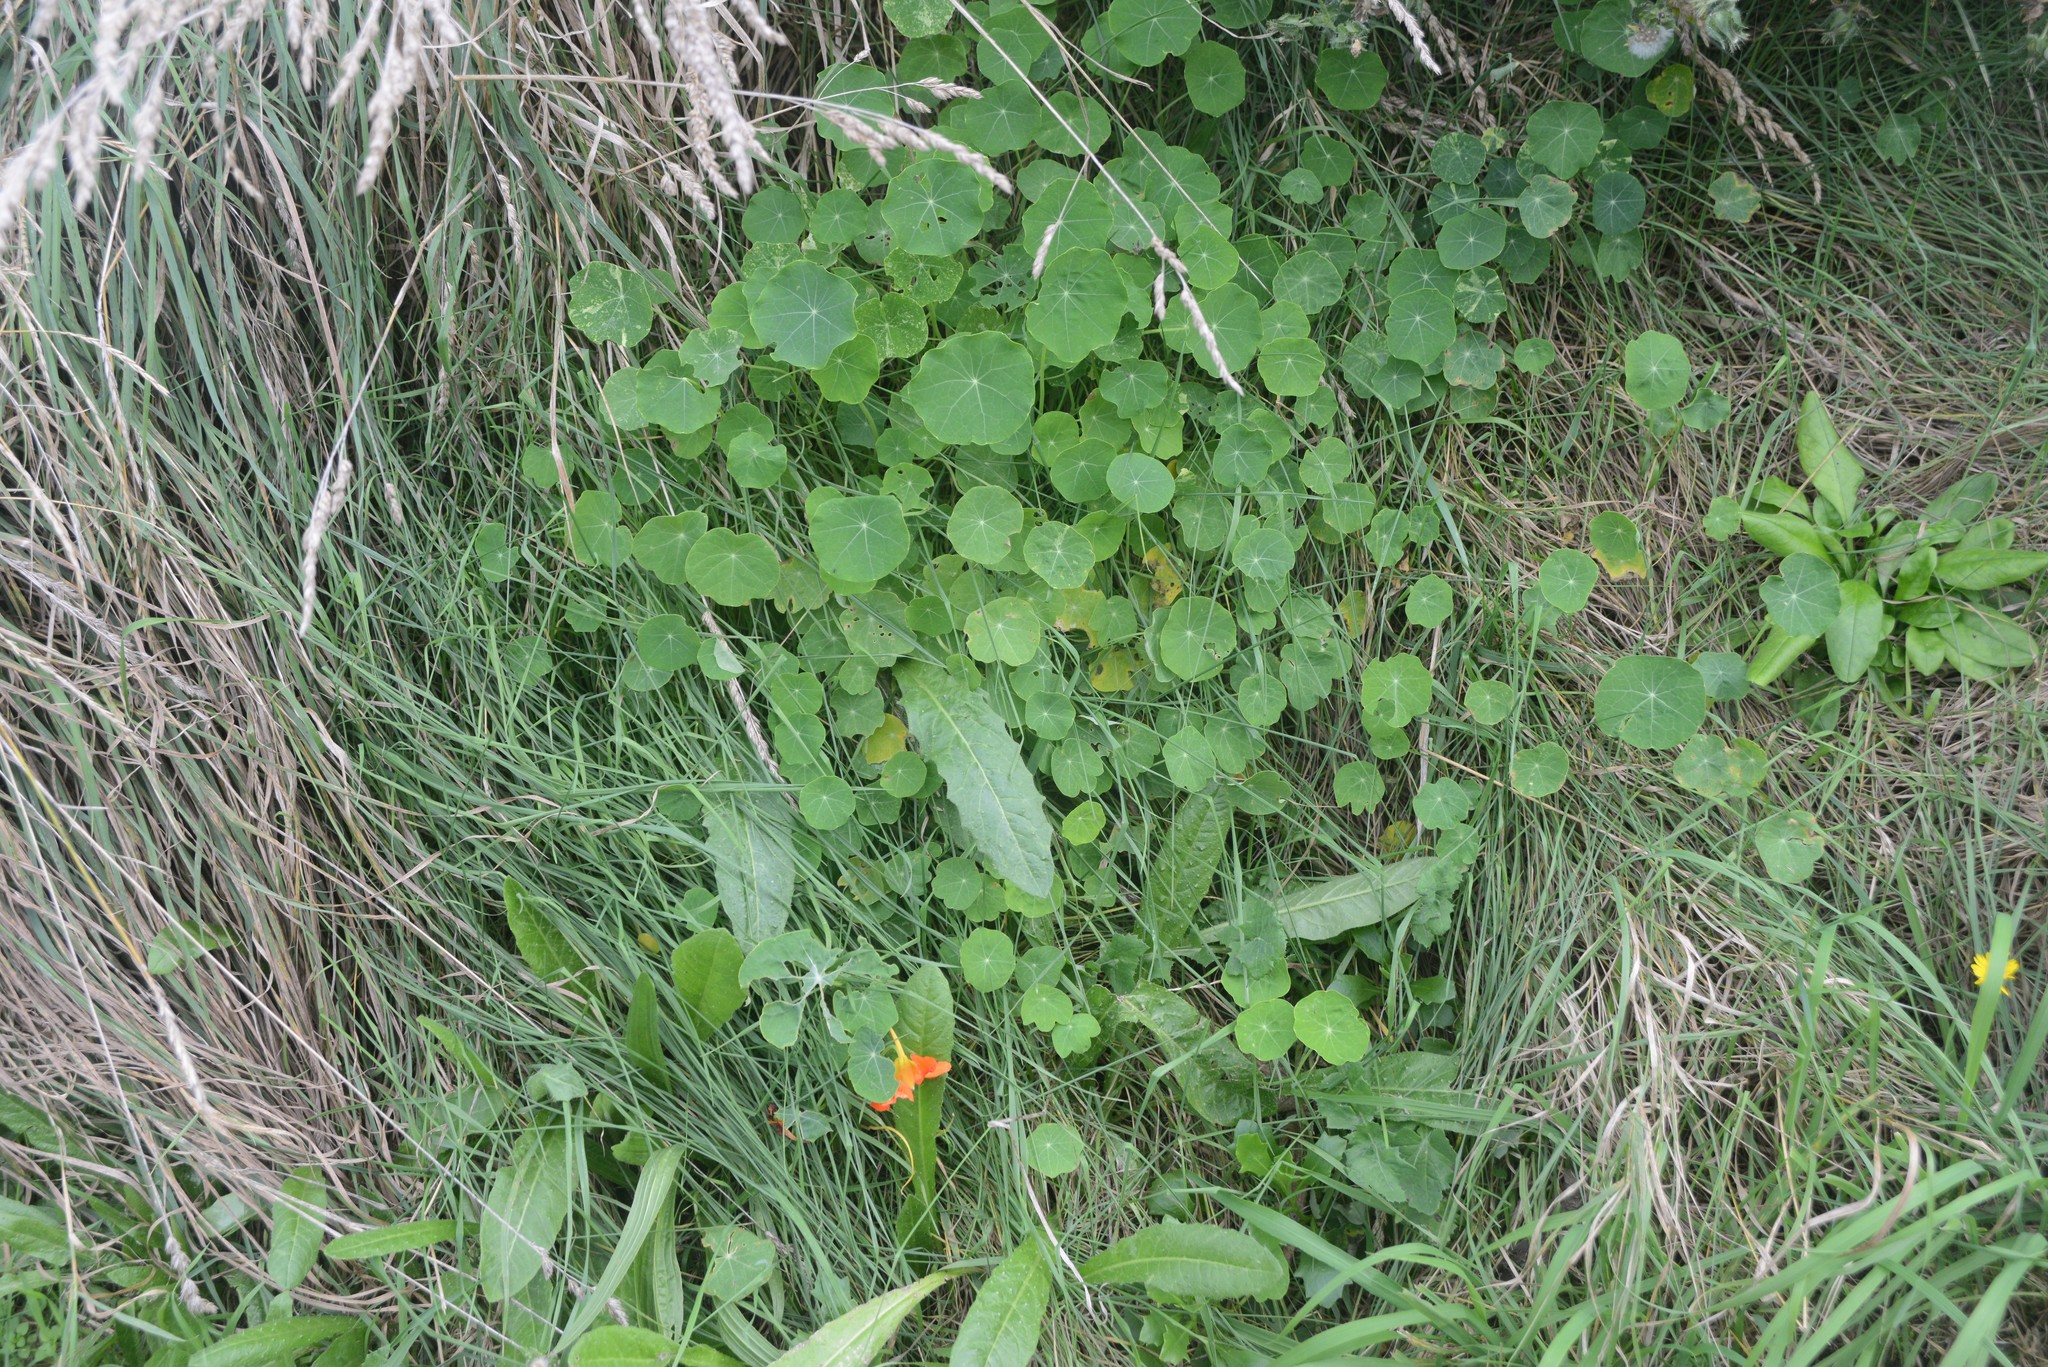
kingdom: Plantae
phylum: Tracheophyta
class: Magnoliopsida
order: Brassicales
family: Tropaeolaceae
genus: Tropaeolum
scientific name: Tropaeolum majus
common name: Nasturtium
